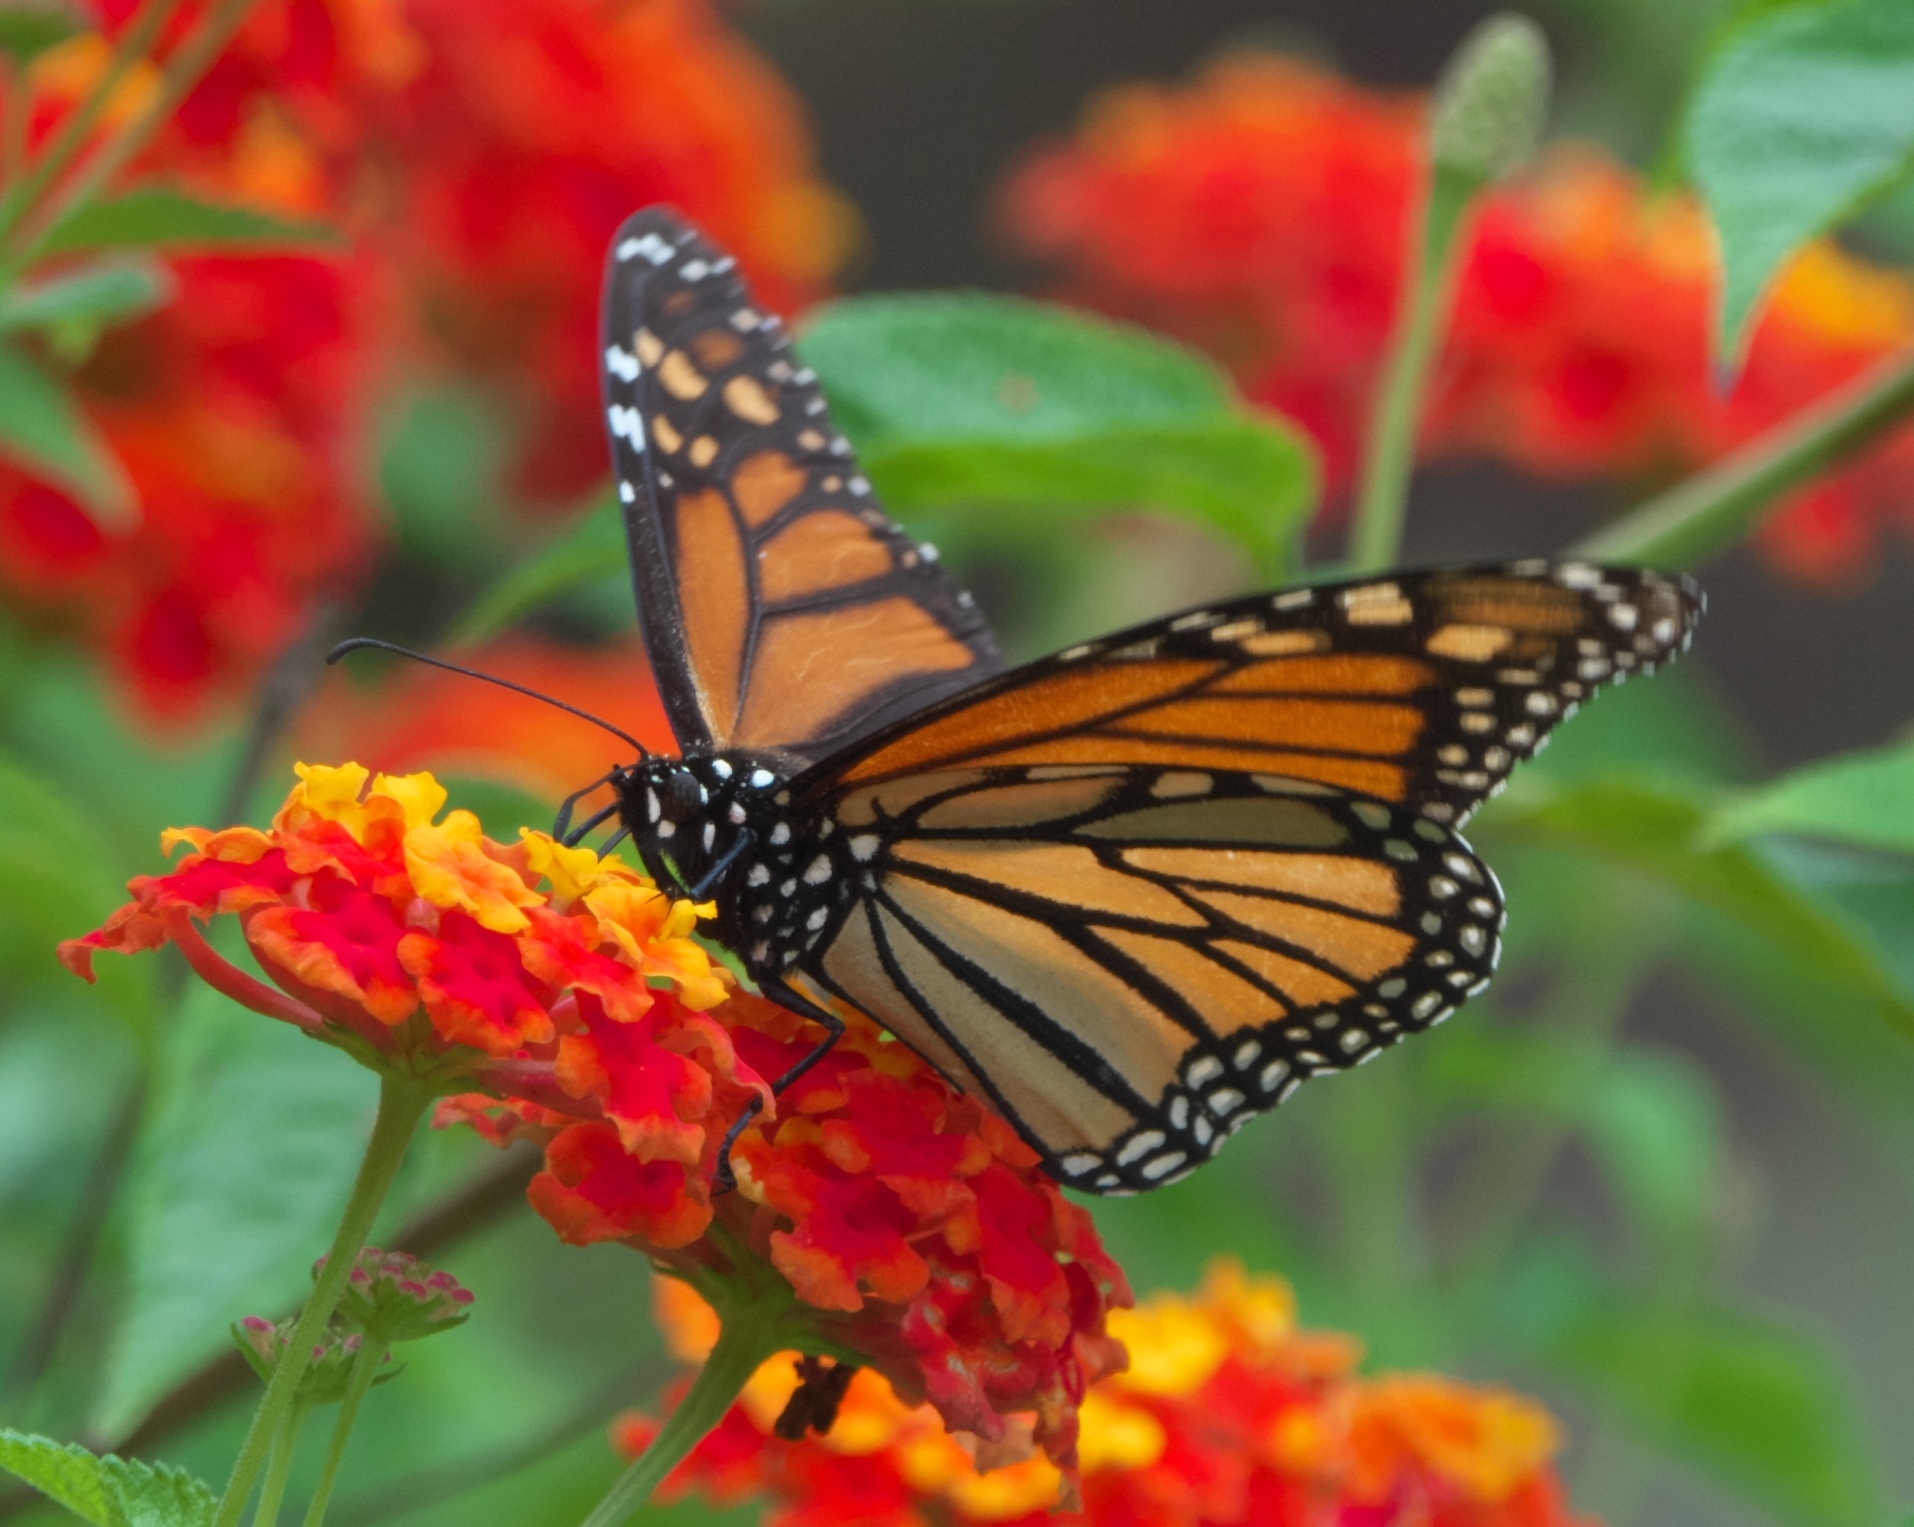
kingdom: Animalia
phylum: Arthropoda
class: Insecta
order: Lepidoptera
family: Nymphalidae
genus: Danaus
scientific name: Danaus plexippus
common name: Monarch
